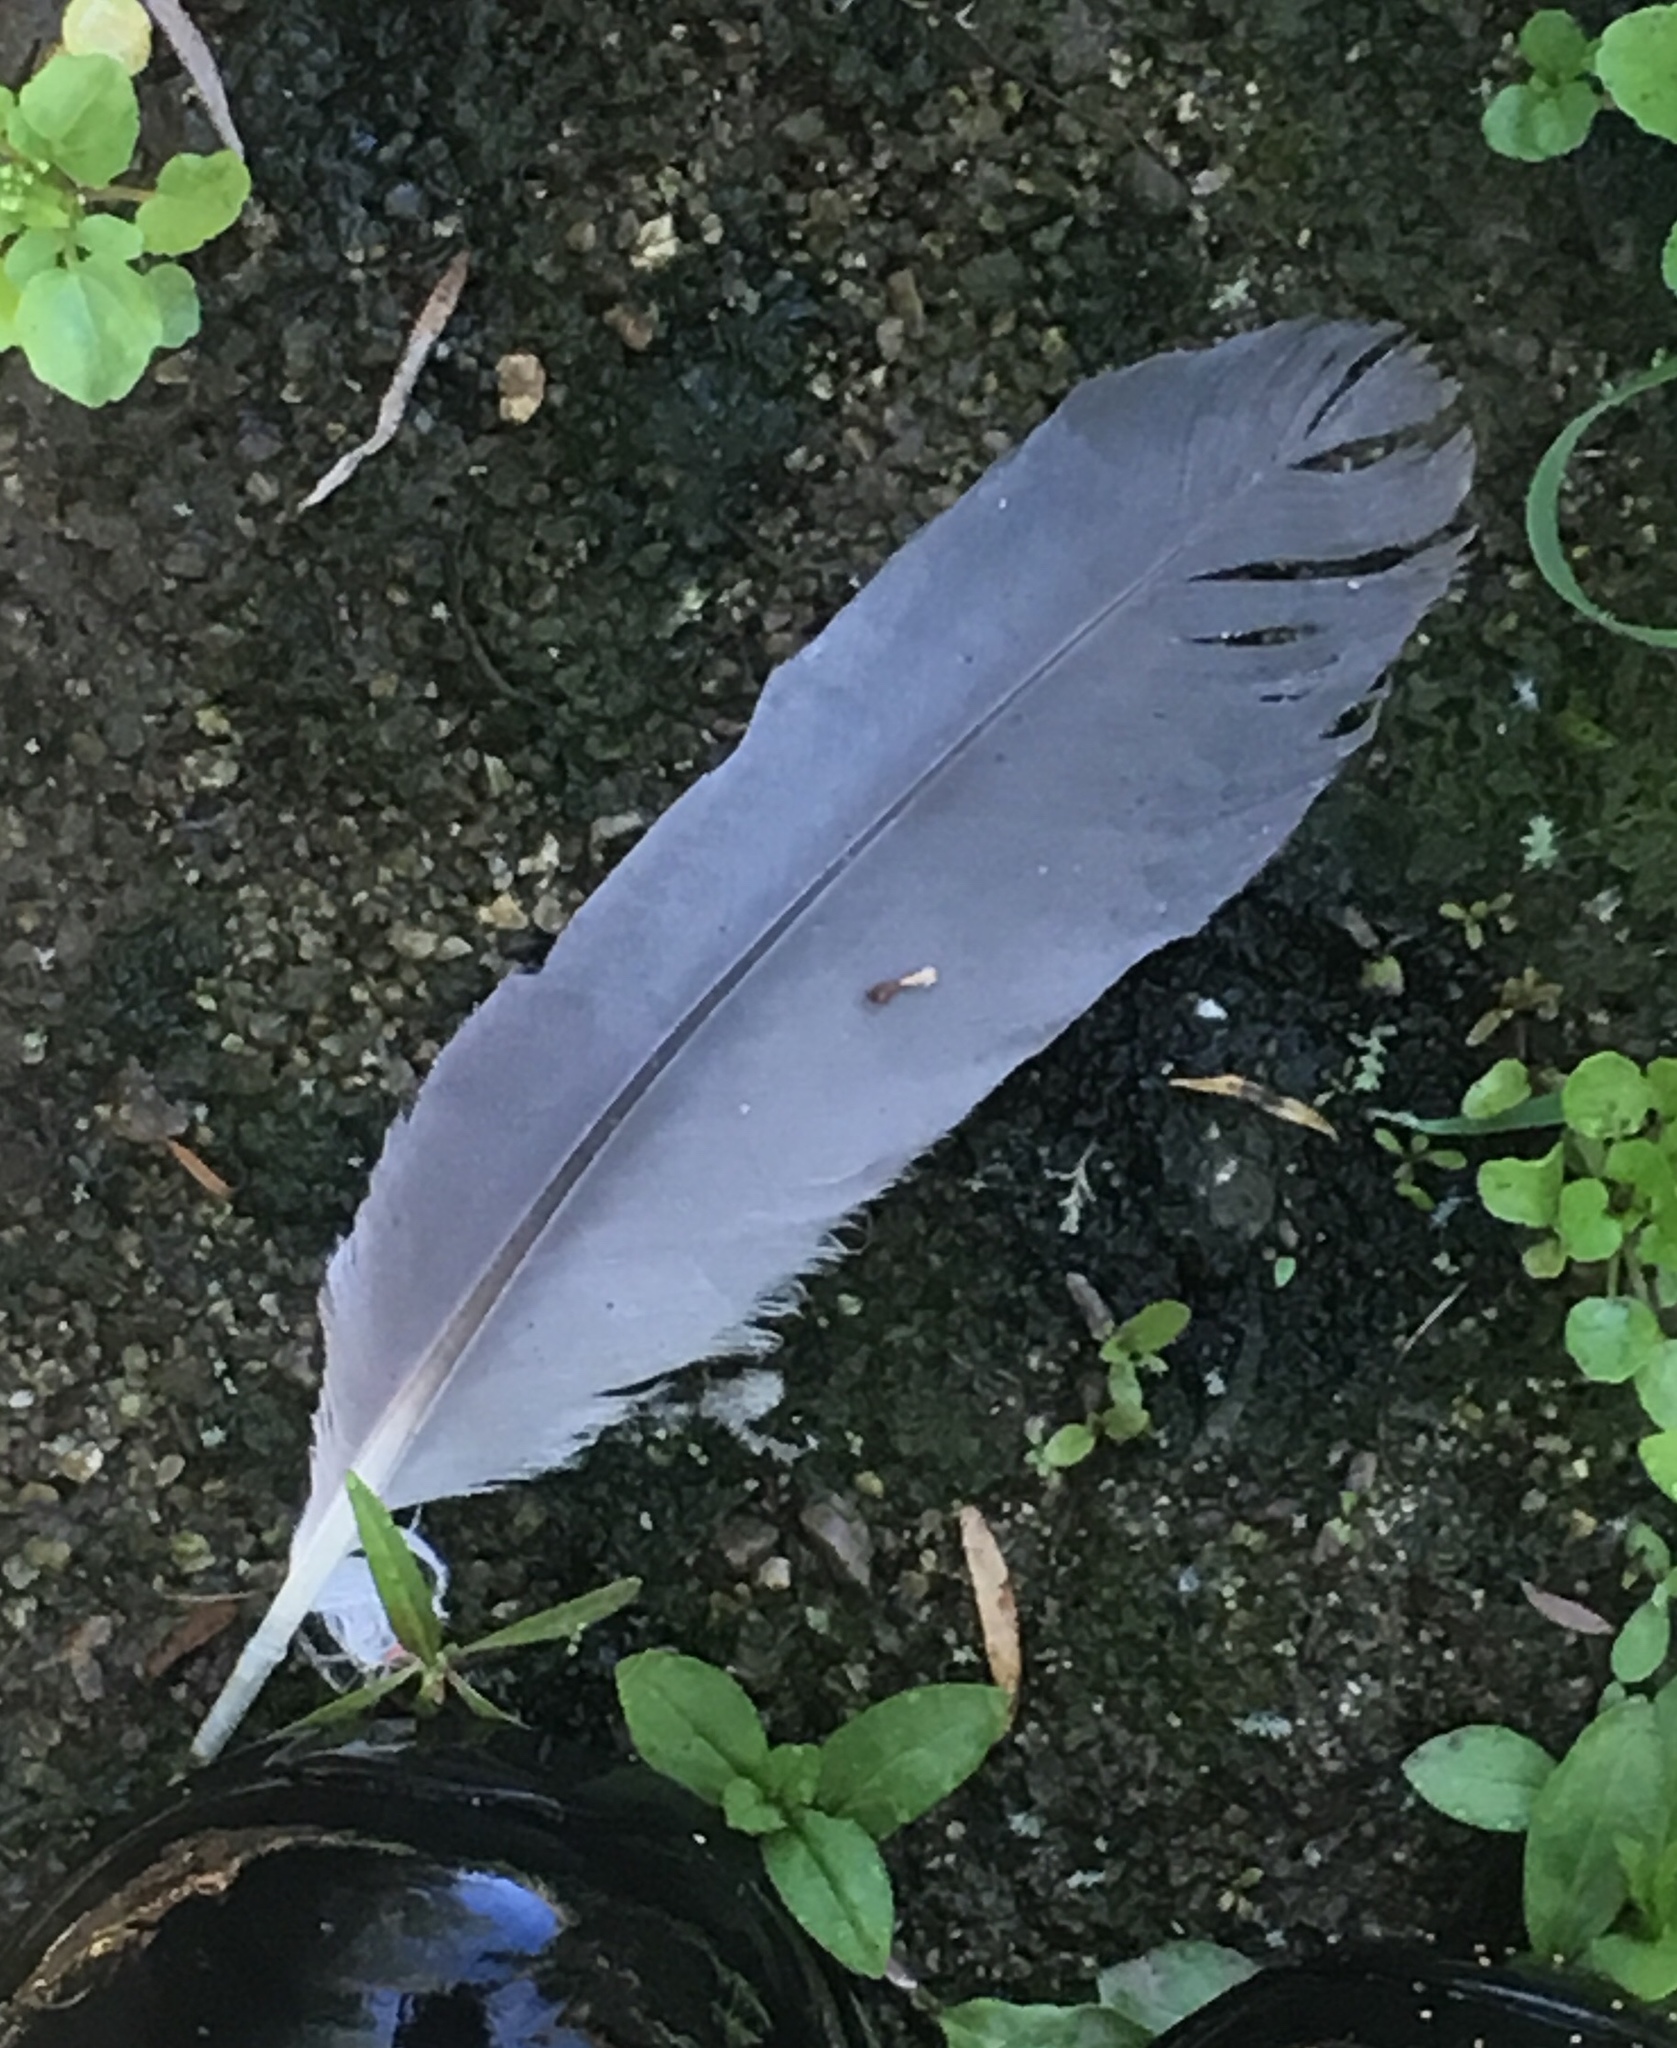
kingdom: Animalia
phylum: Chordata
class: Aves
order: Pelecaniformes
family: Ardeidae
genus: Ardea
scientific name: Ardea herodias
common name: Great blue heron
